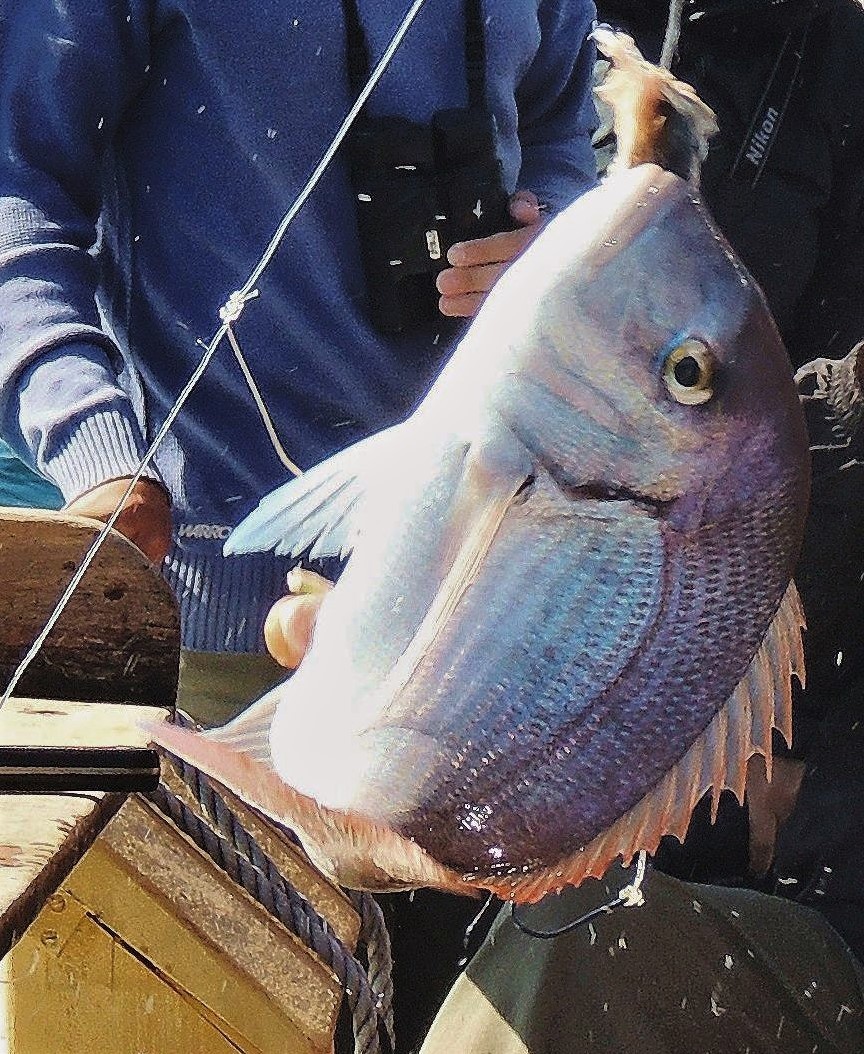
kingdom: Animalia
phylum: Chordata
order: Perciformes
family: Sparidae
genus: Pagrus
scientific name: Pagrus pagrus
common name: Red porgy
